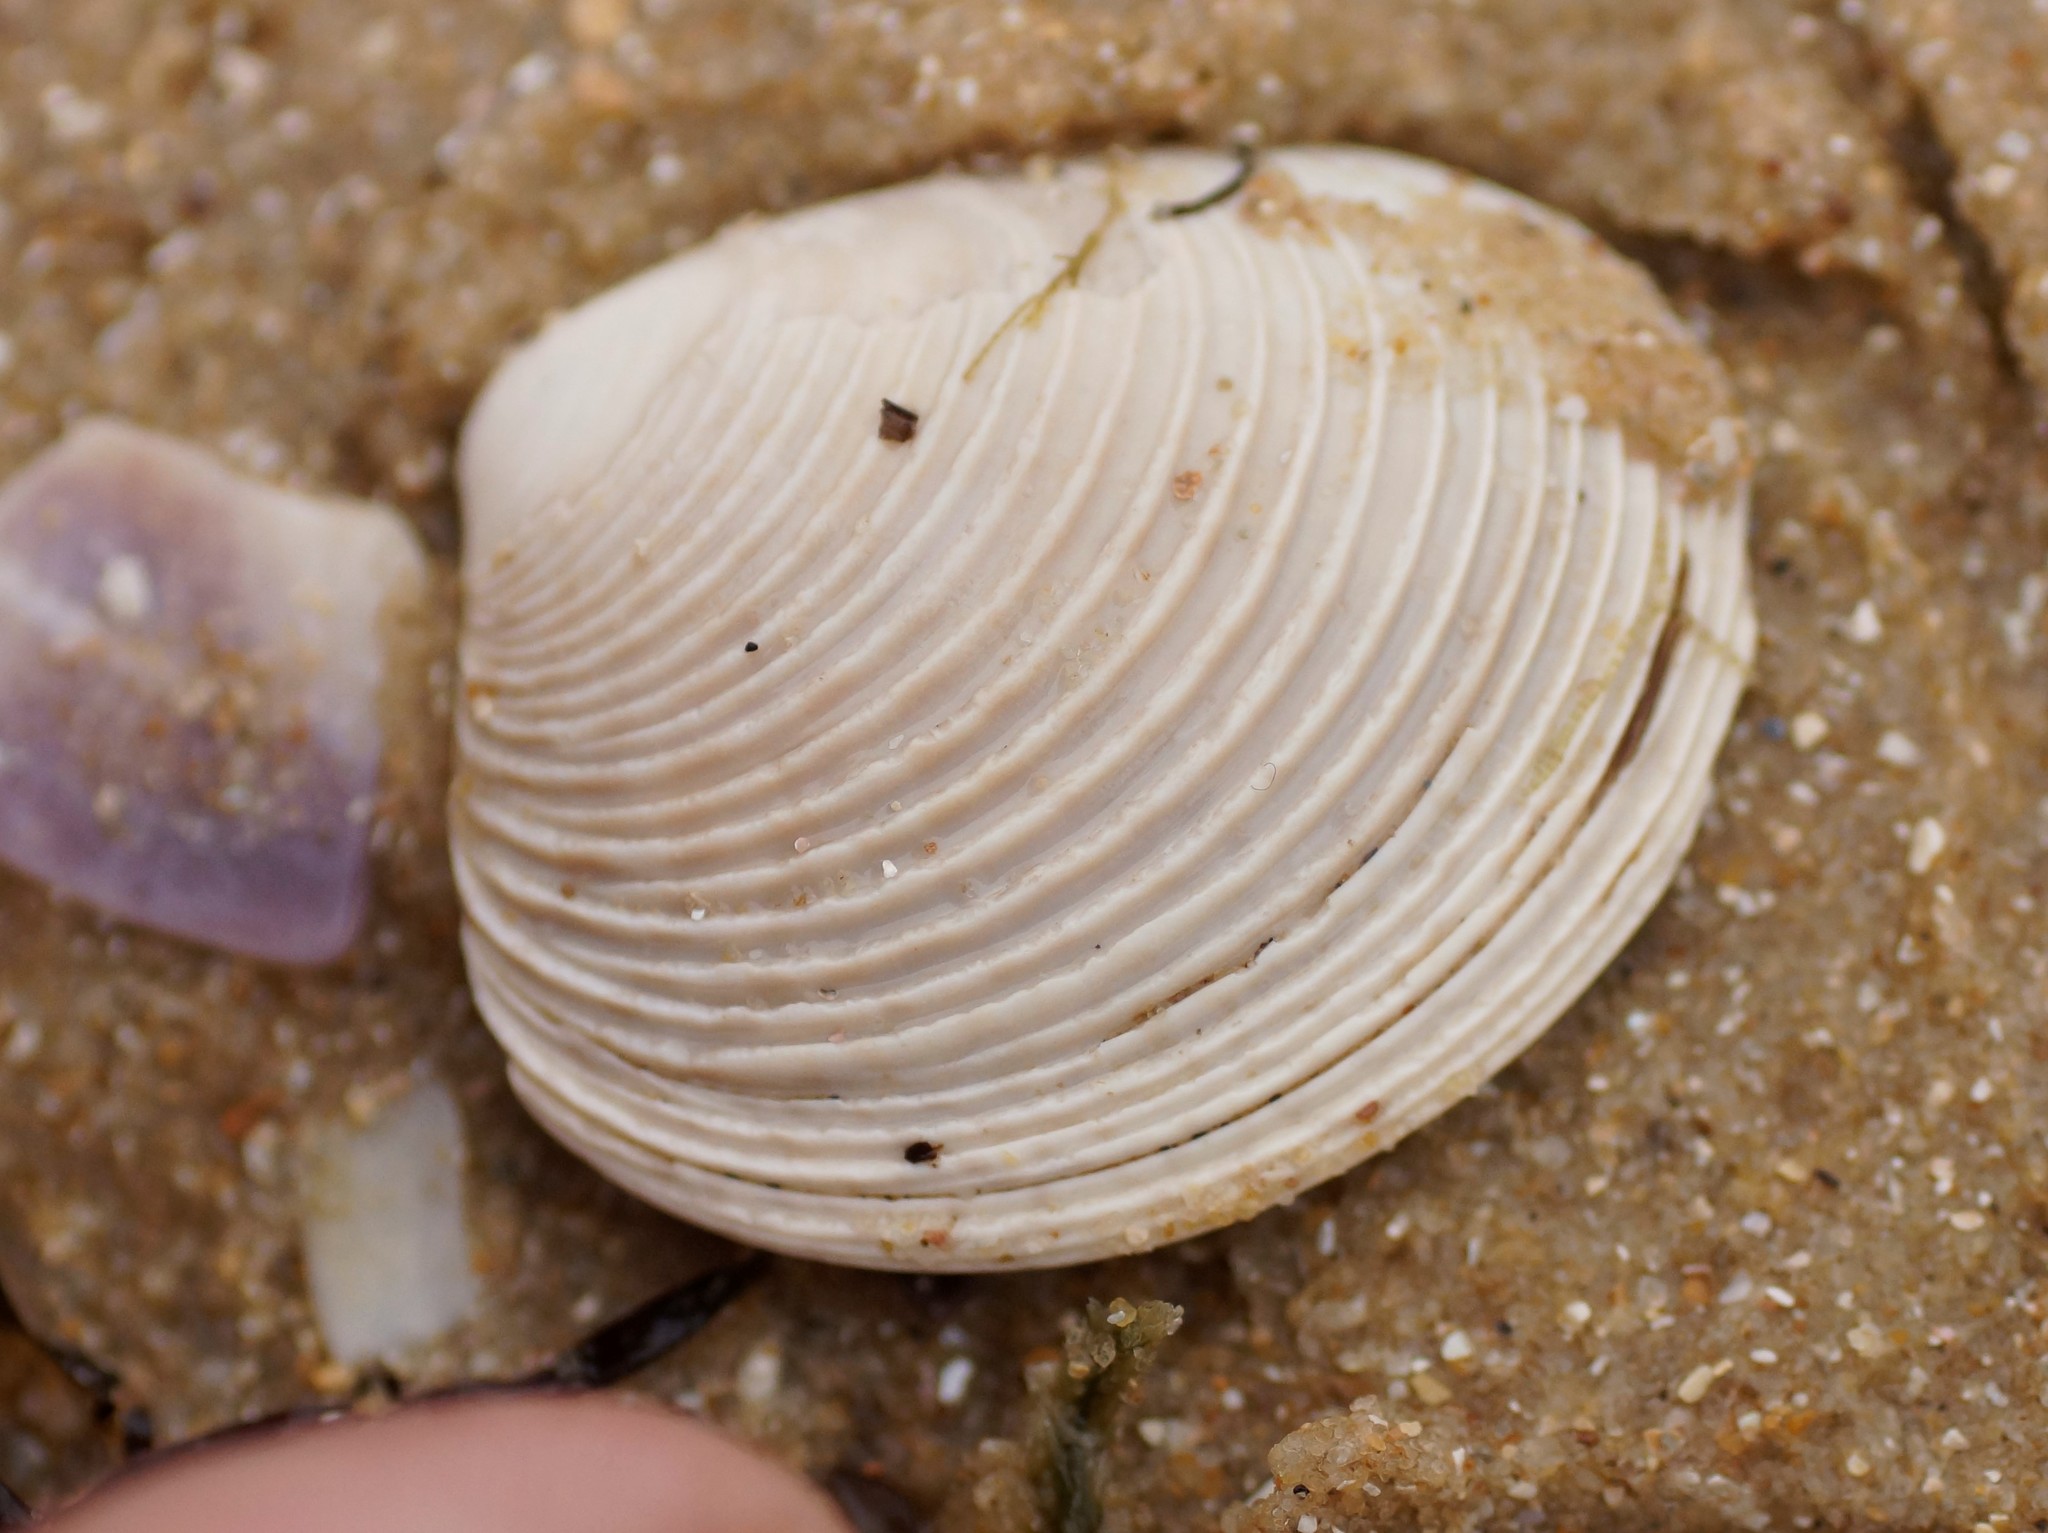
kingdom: Animalia
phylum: Mollusca
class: Bivalvia
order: Venerida
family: Veneridae
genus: Katelysia
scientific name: Katelysia scalarina
